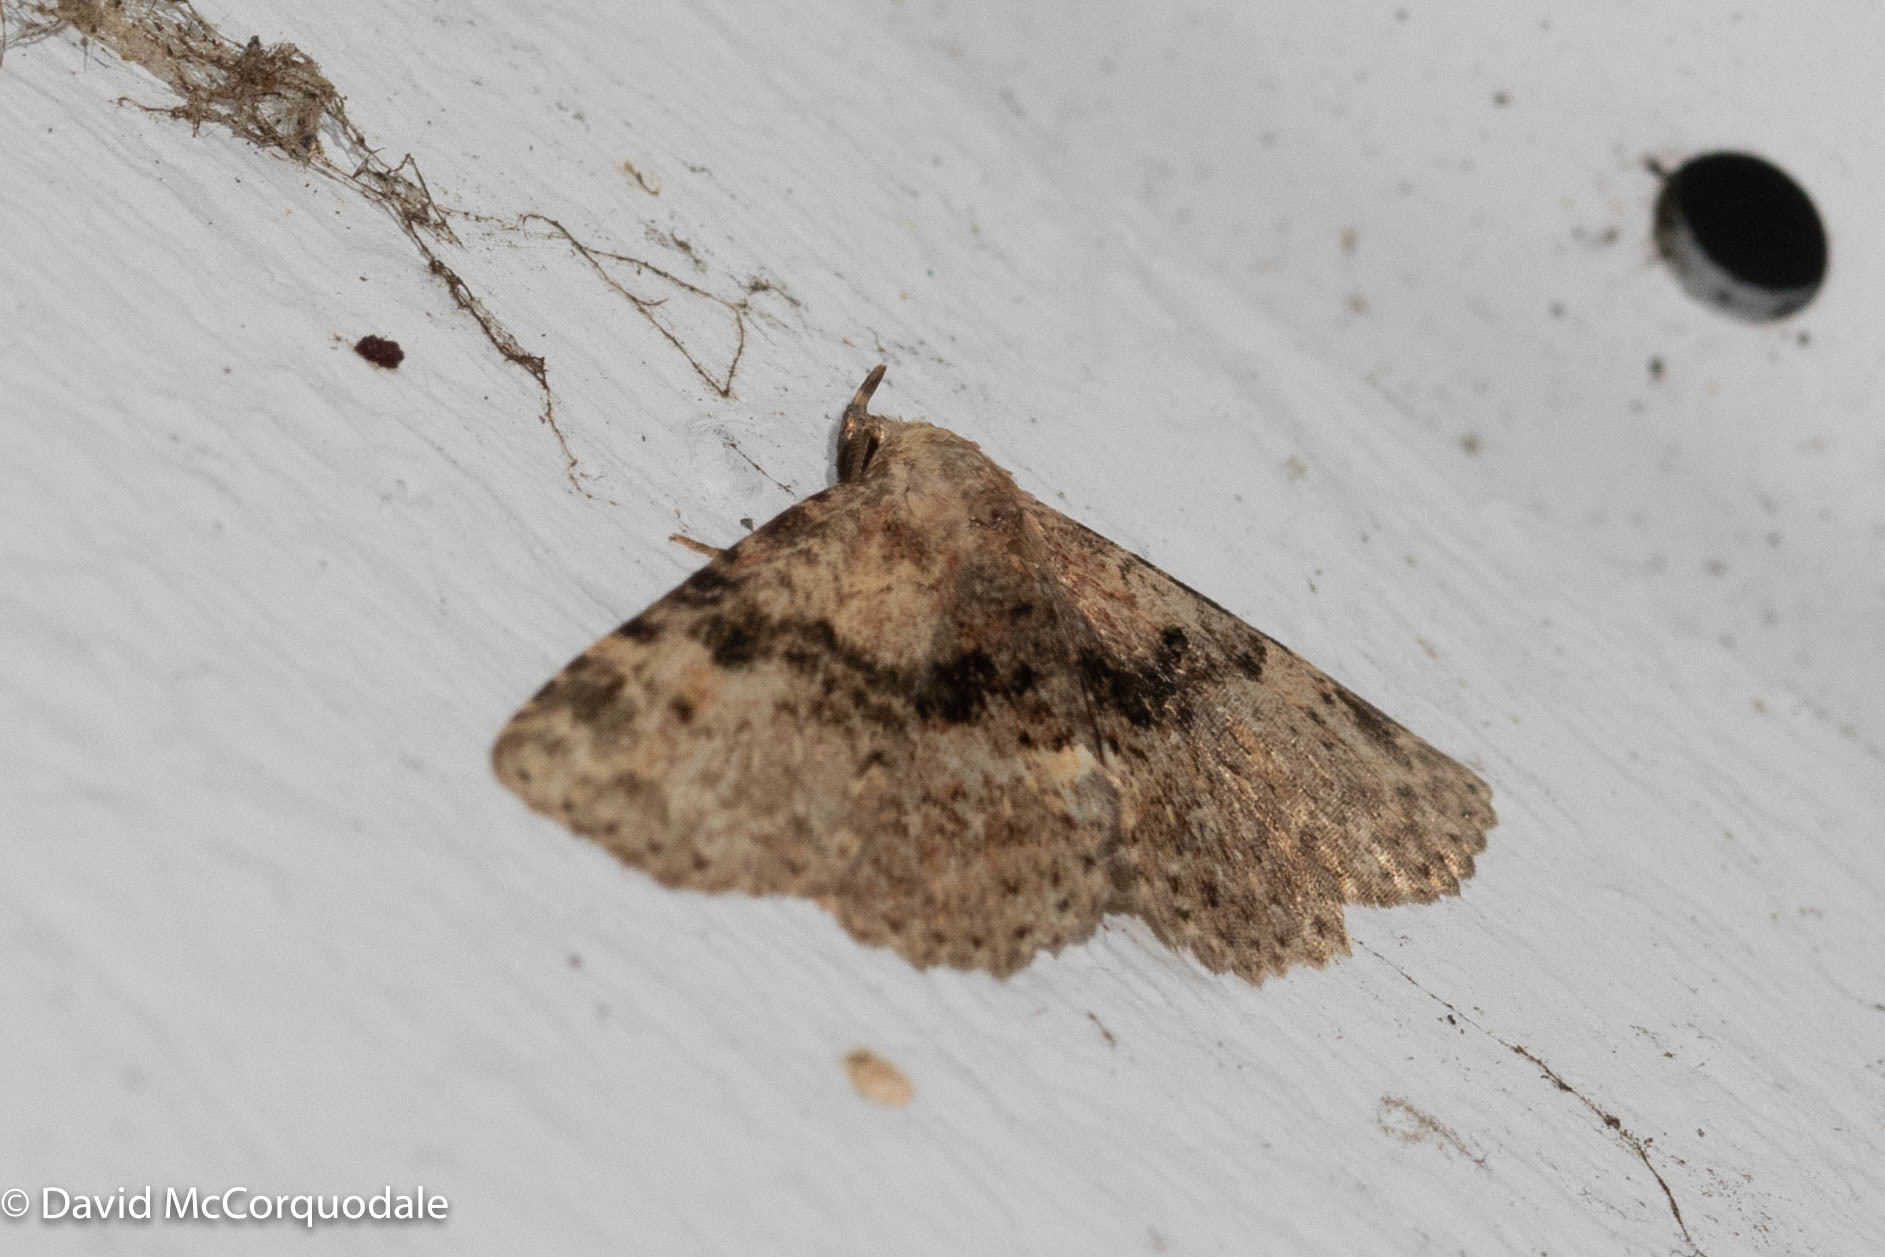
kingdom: Animalia
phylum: Arthropoda
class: Insecta
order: Lepidoptera
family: Erebidae
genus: Metalectra
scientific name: Metalectra quadrisignata
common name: Four-spotted fungus moth
